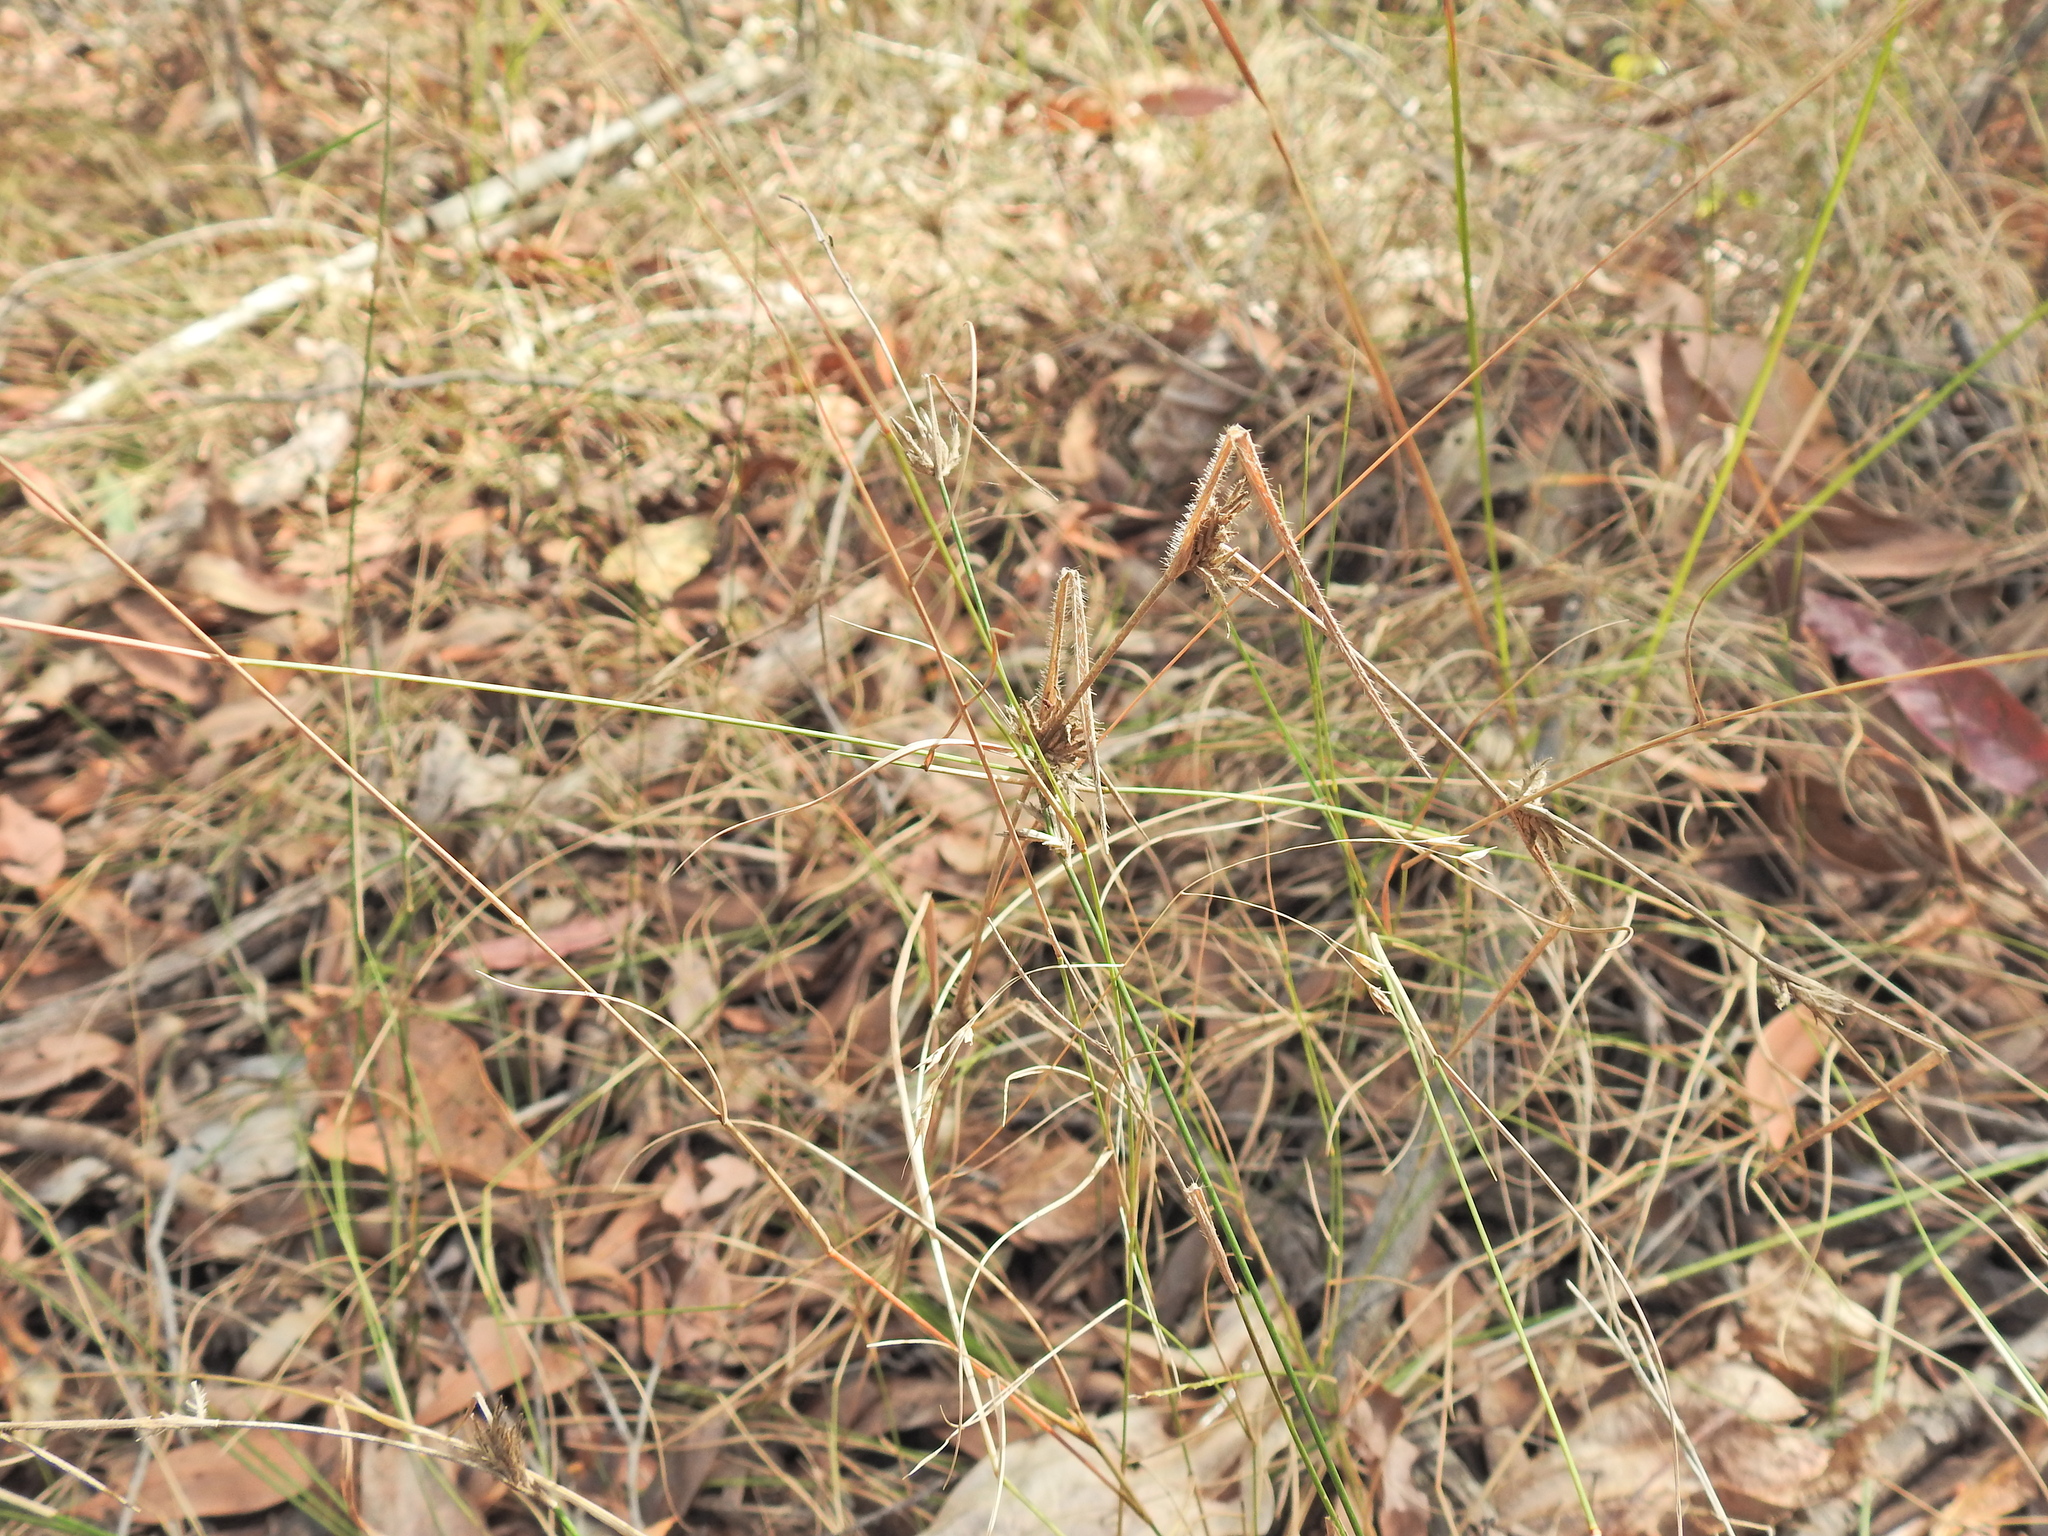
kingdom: Plantae
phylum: Tracheophyta
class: Liliopsida
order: Poales
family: Poaceae
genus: Entolasia
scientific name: Entolasia stricta
